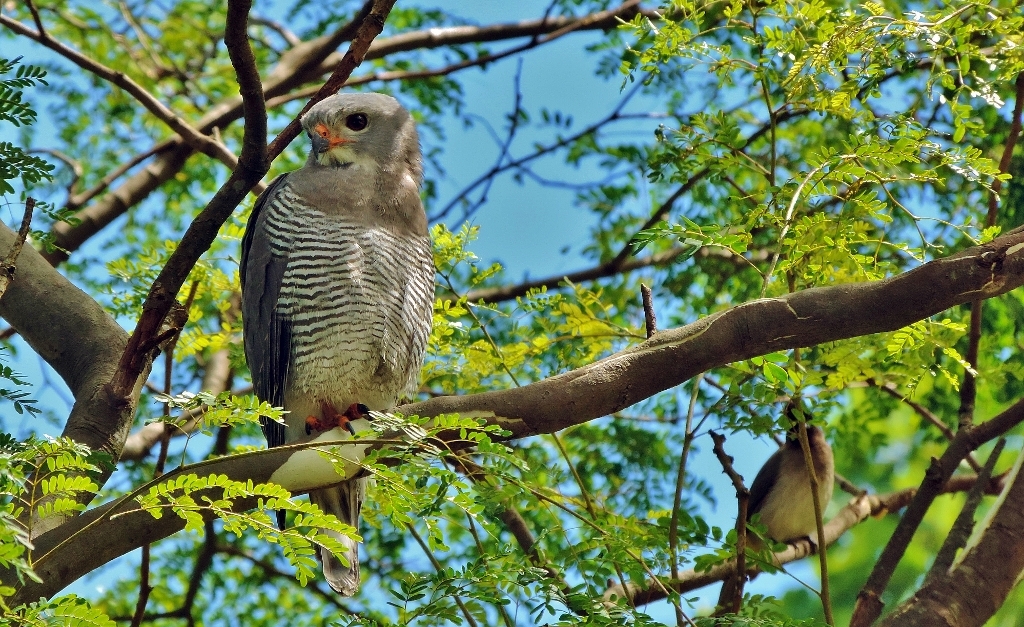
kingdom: Animalia
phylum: Chordata
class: Aves
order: Accipitriformes
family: Accipitridae
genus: Kaupifalco
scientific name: Kaupifalco monogrammicus
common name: Lizard buzzard
